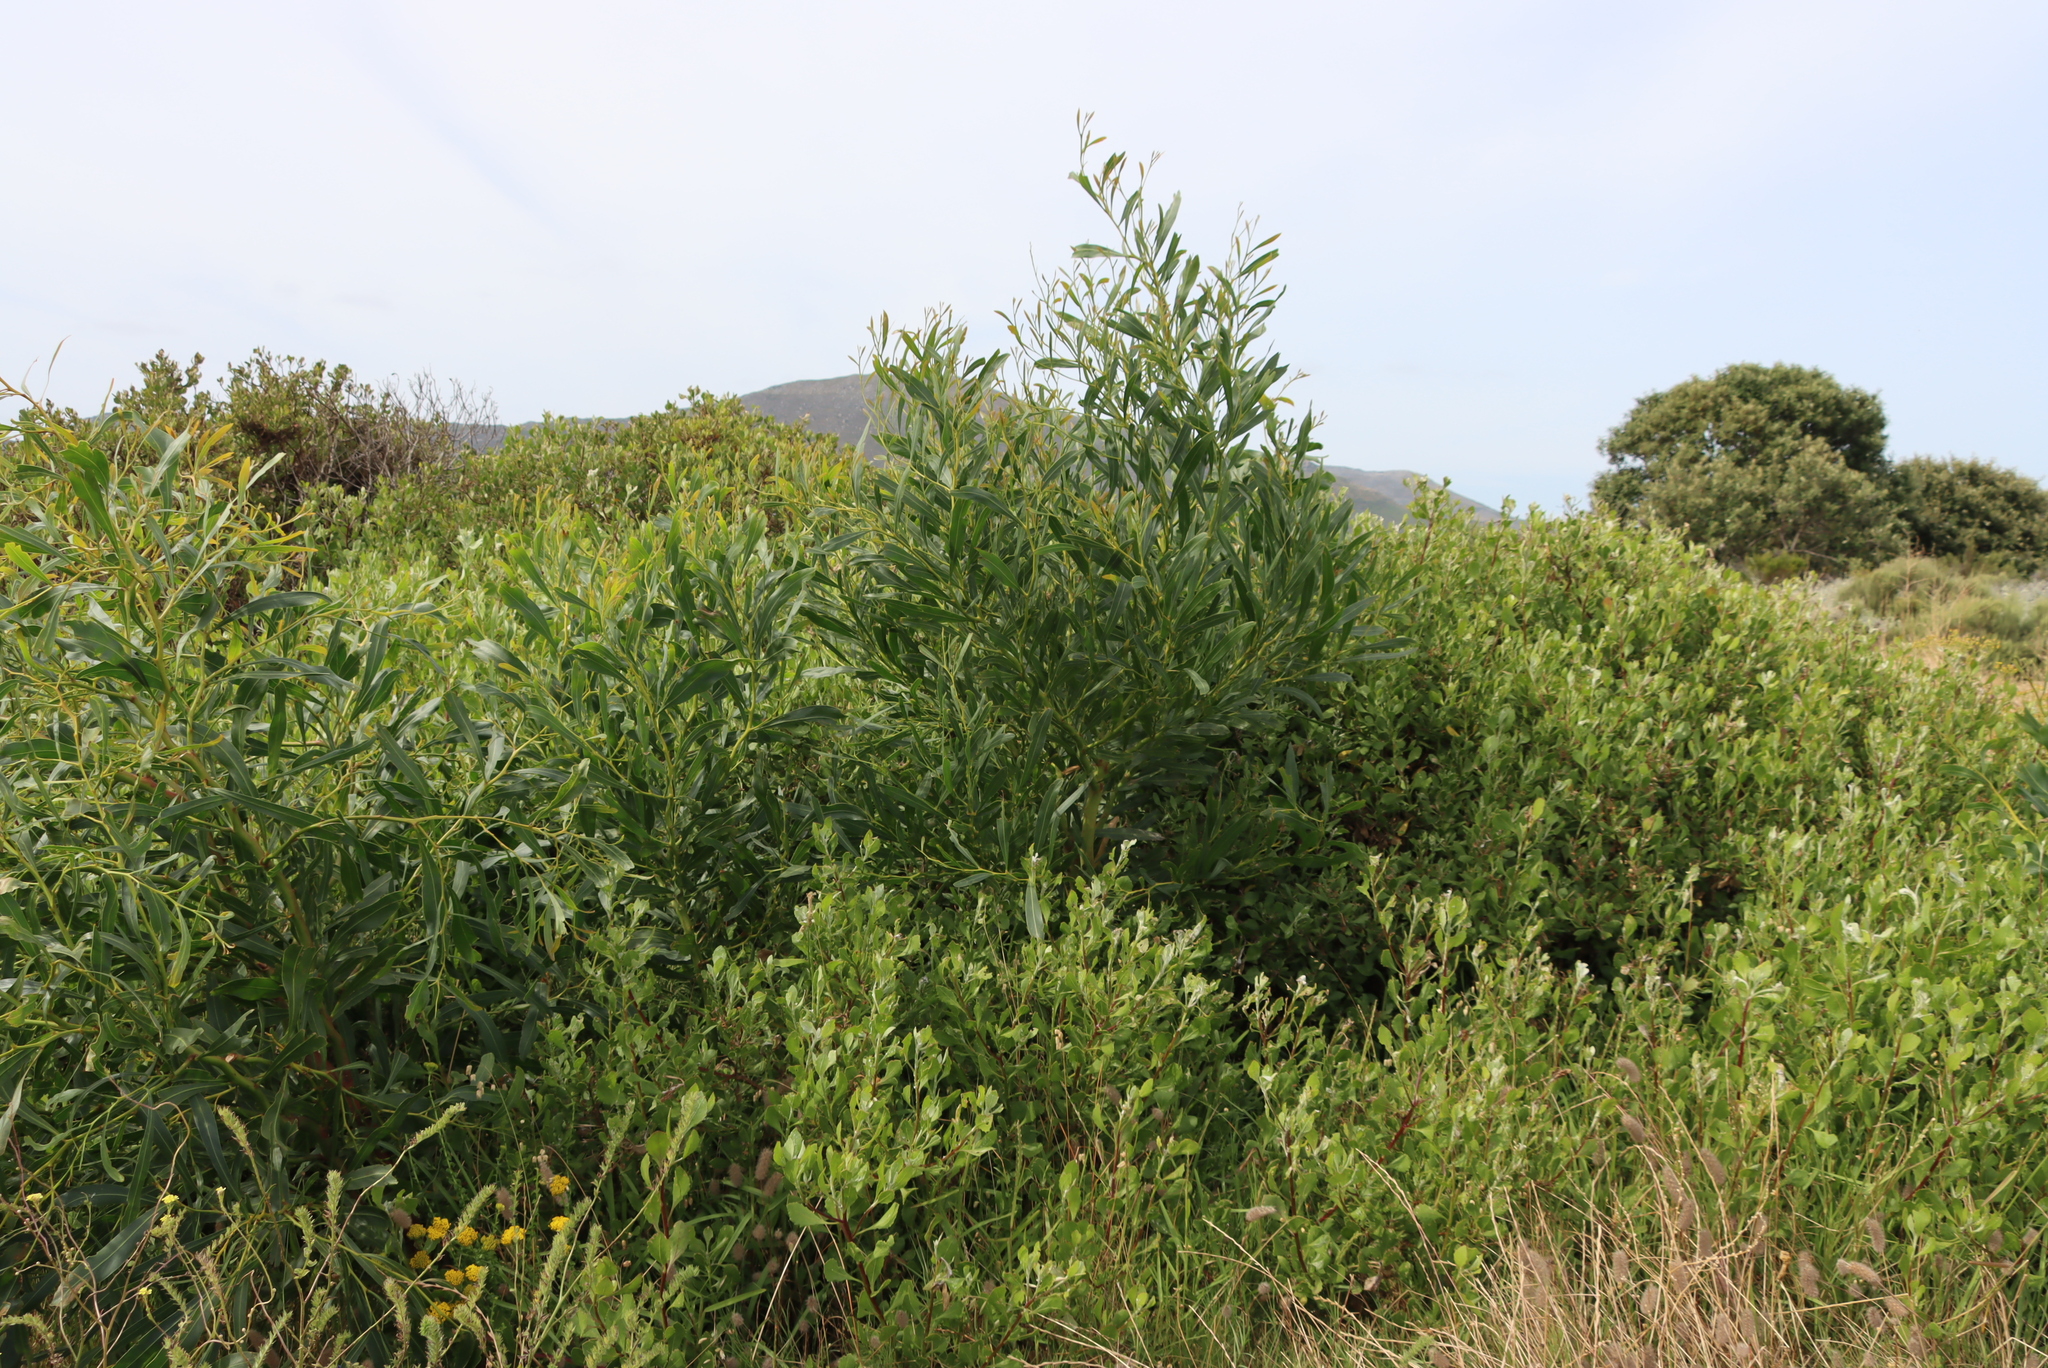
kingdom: Plantae
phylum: Tracheophyta
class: Magnoliopsida
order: Fabales
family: Fabaceae
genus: Acacia
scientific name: Acacia saligna
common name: Orange wattle
